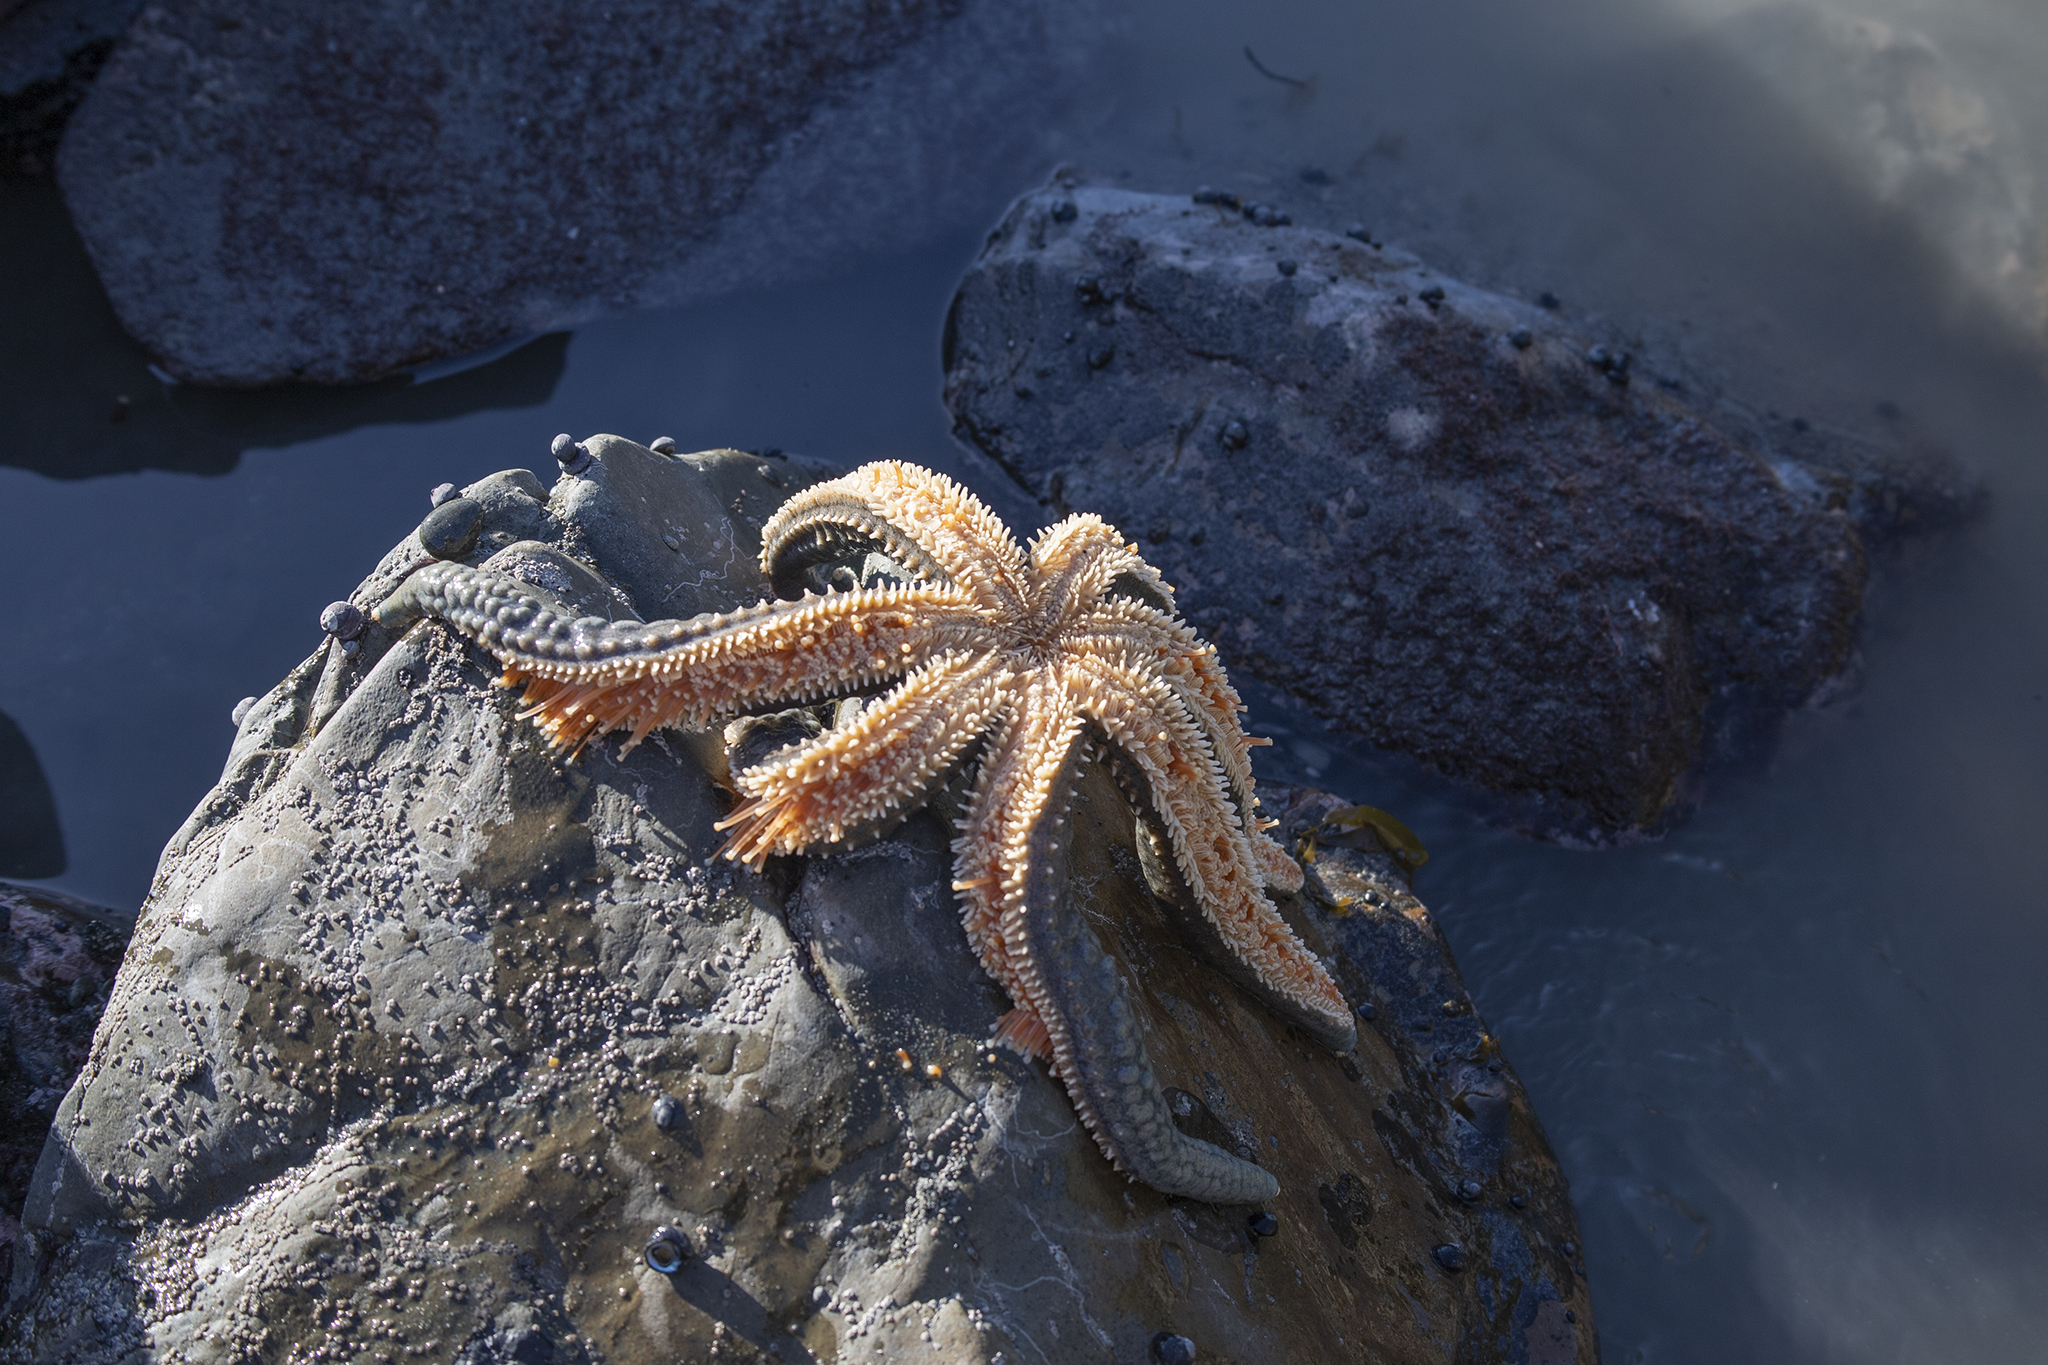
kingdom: Animalia
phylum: Echinodermata
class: Asteroidea
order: Forcipulatida
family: Asteriidae
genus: Astrostole
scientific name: Astrostole scabra
